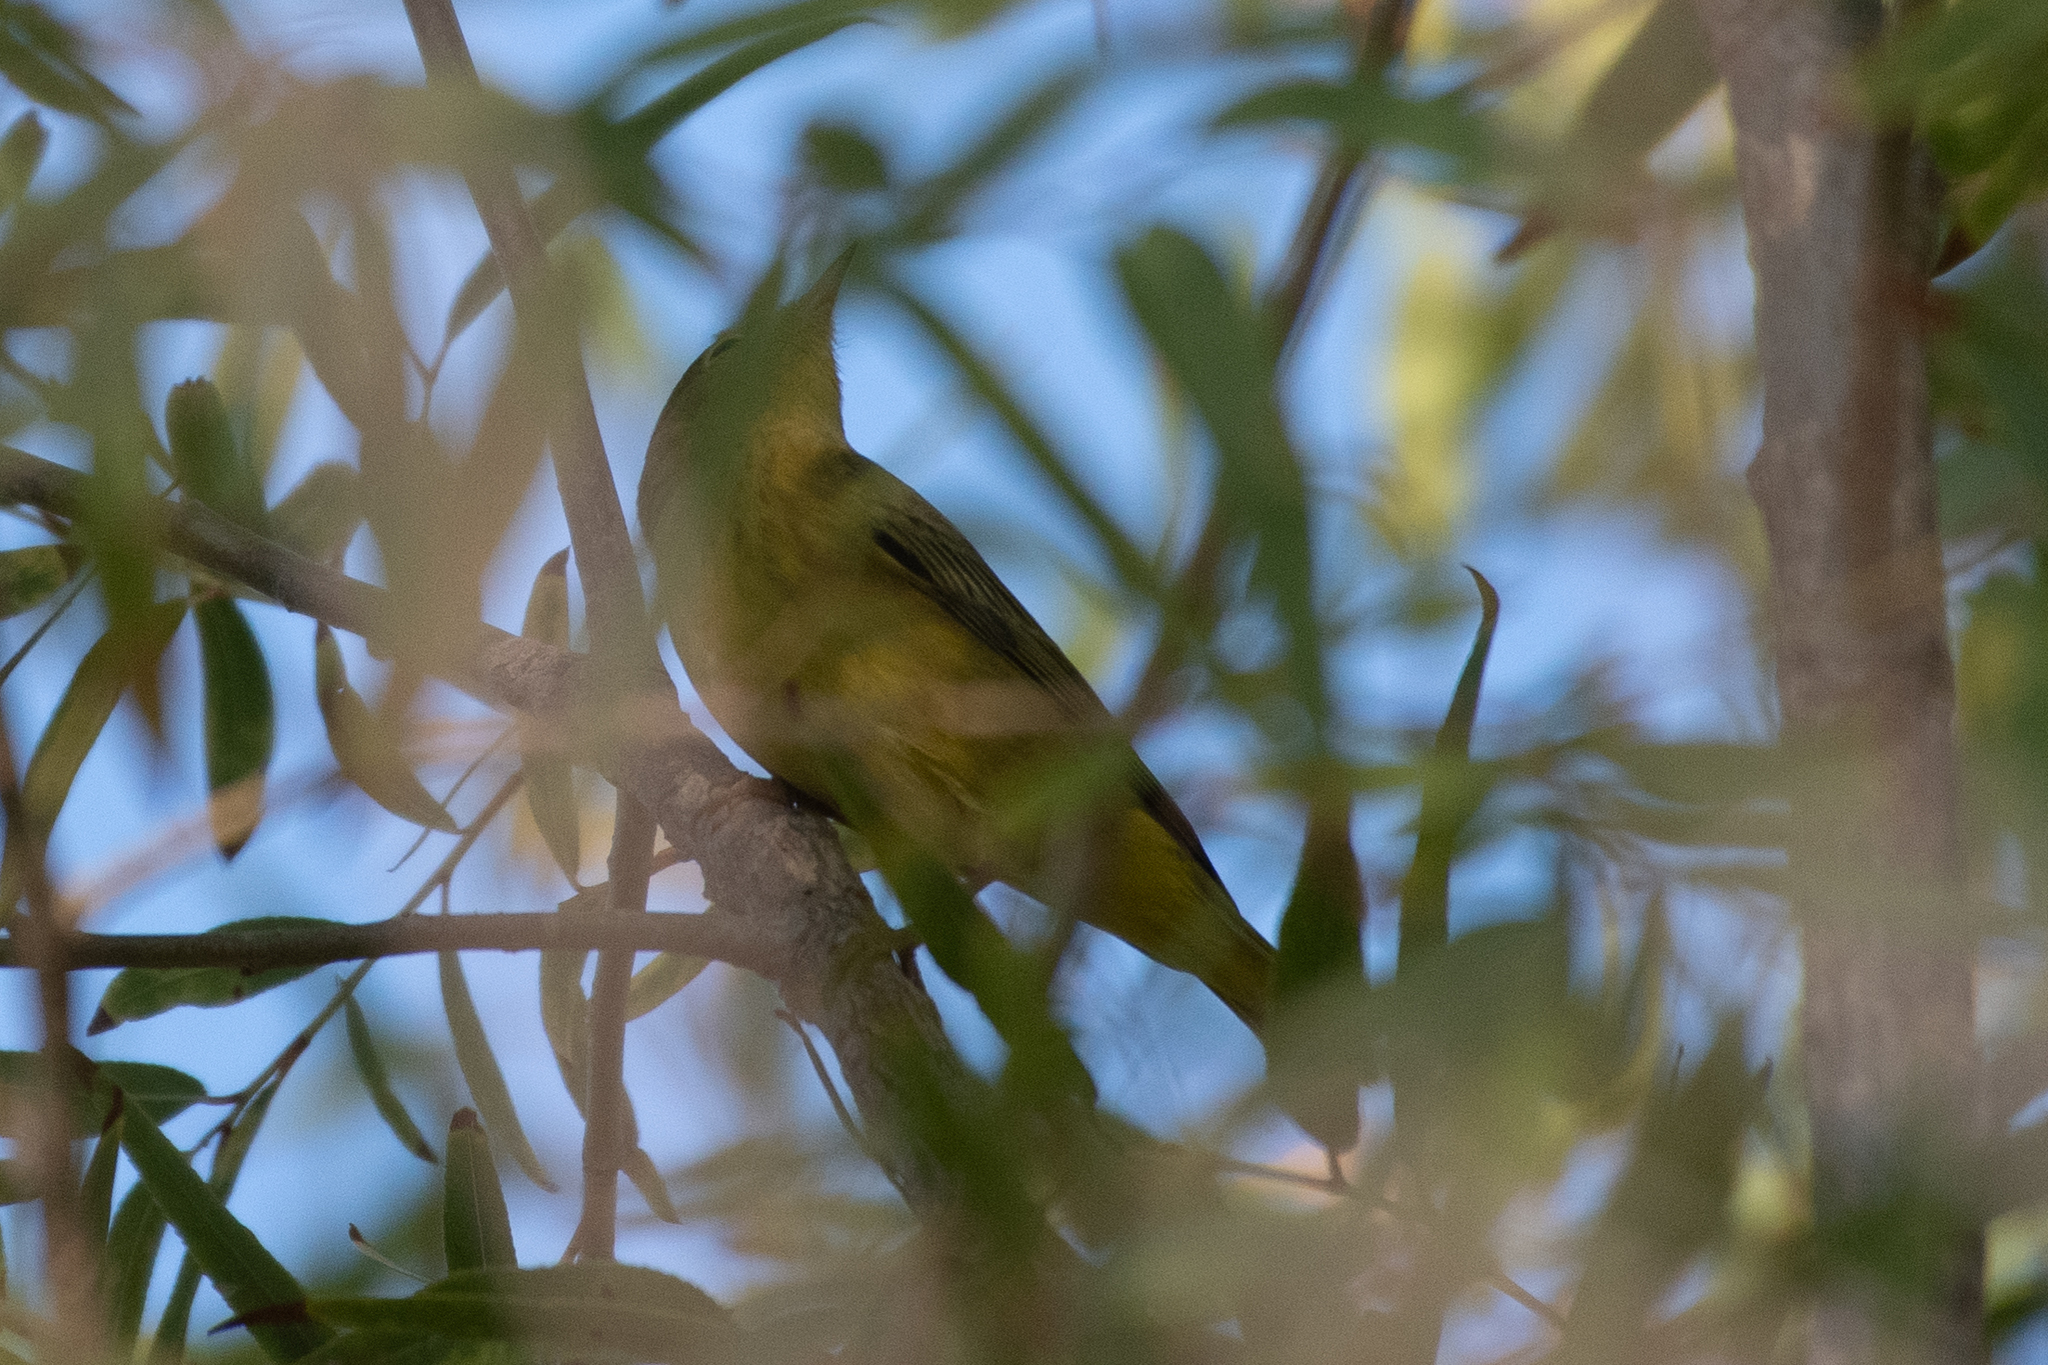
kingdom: Animalia
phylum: Chordata
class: Aves
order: Passeriformes
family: Parulidae
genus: Setophaga
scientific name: Setophaga petechia
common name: Yellow warbler
